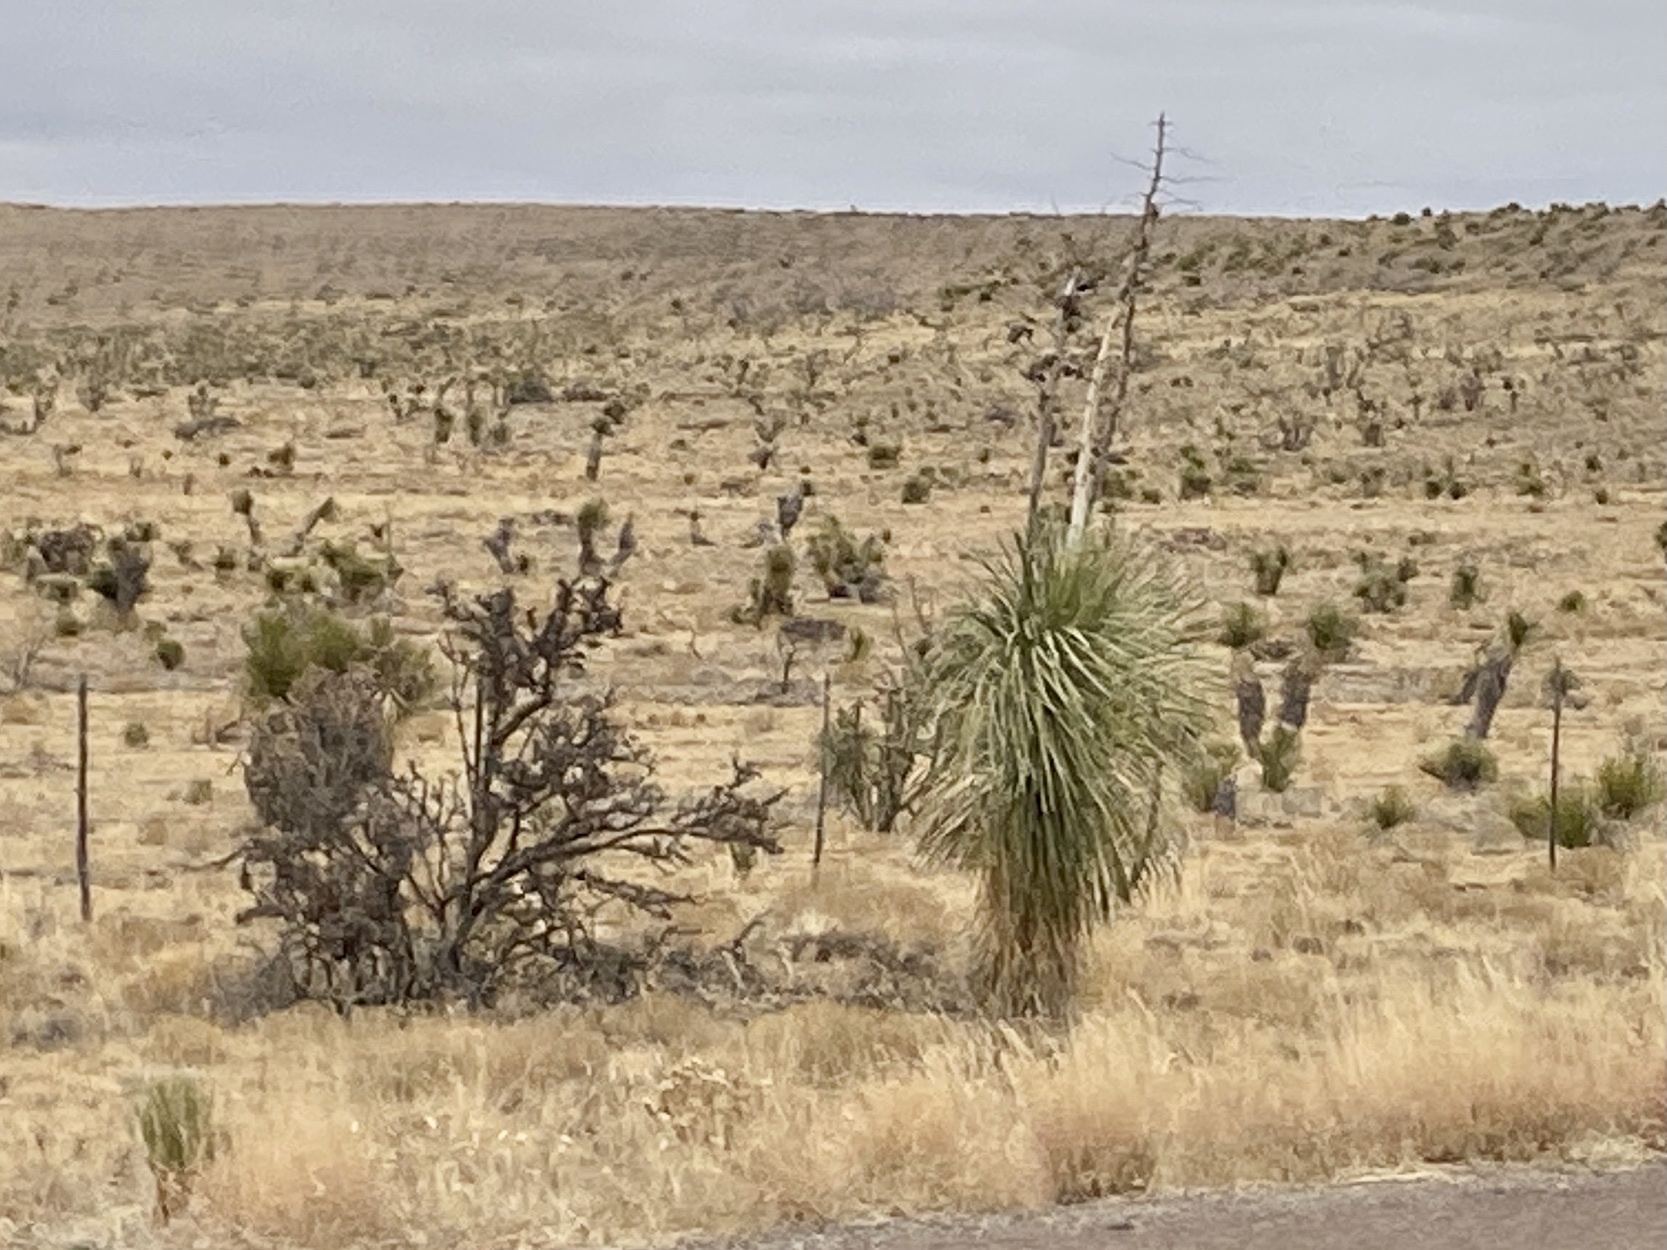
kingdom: Plantae
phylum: Tracheophyta
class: Liliopsida
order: Asparagales
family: Asparagaceae
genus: Yucca
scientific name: Yucca elata
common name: Palmella
